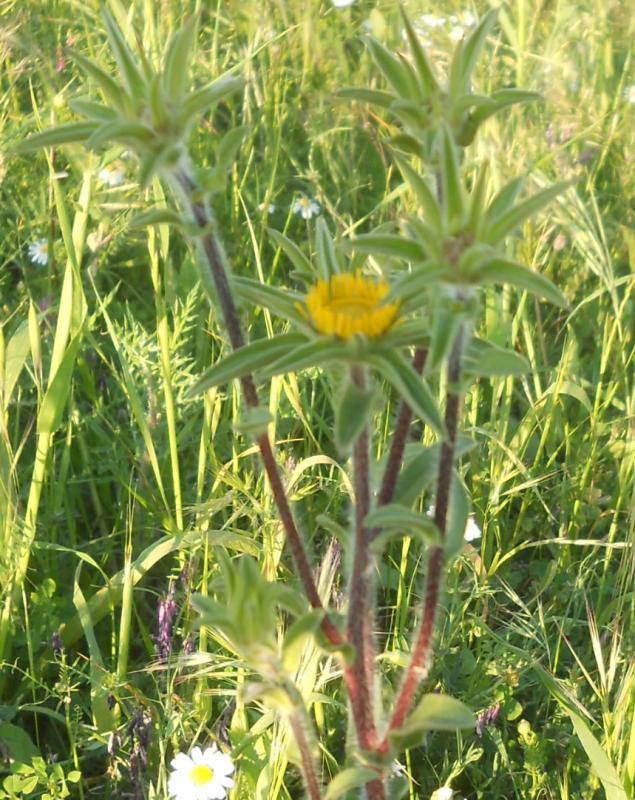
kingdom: Plantae
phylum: Tracheophyta
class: Magnoliopsida
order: Asterales
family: Asteraceae
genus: Pallenis
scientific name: Pallenis spinosa
